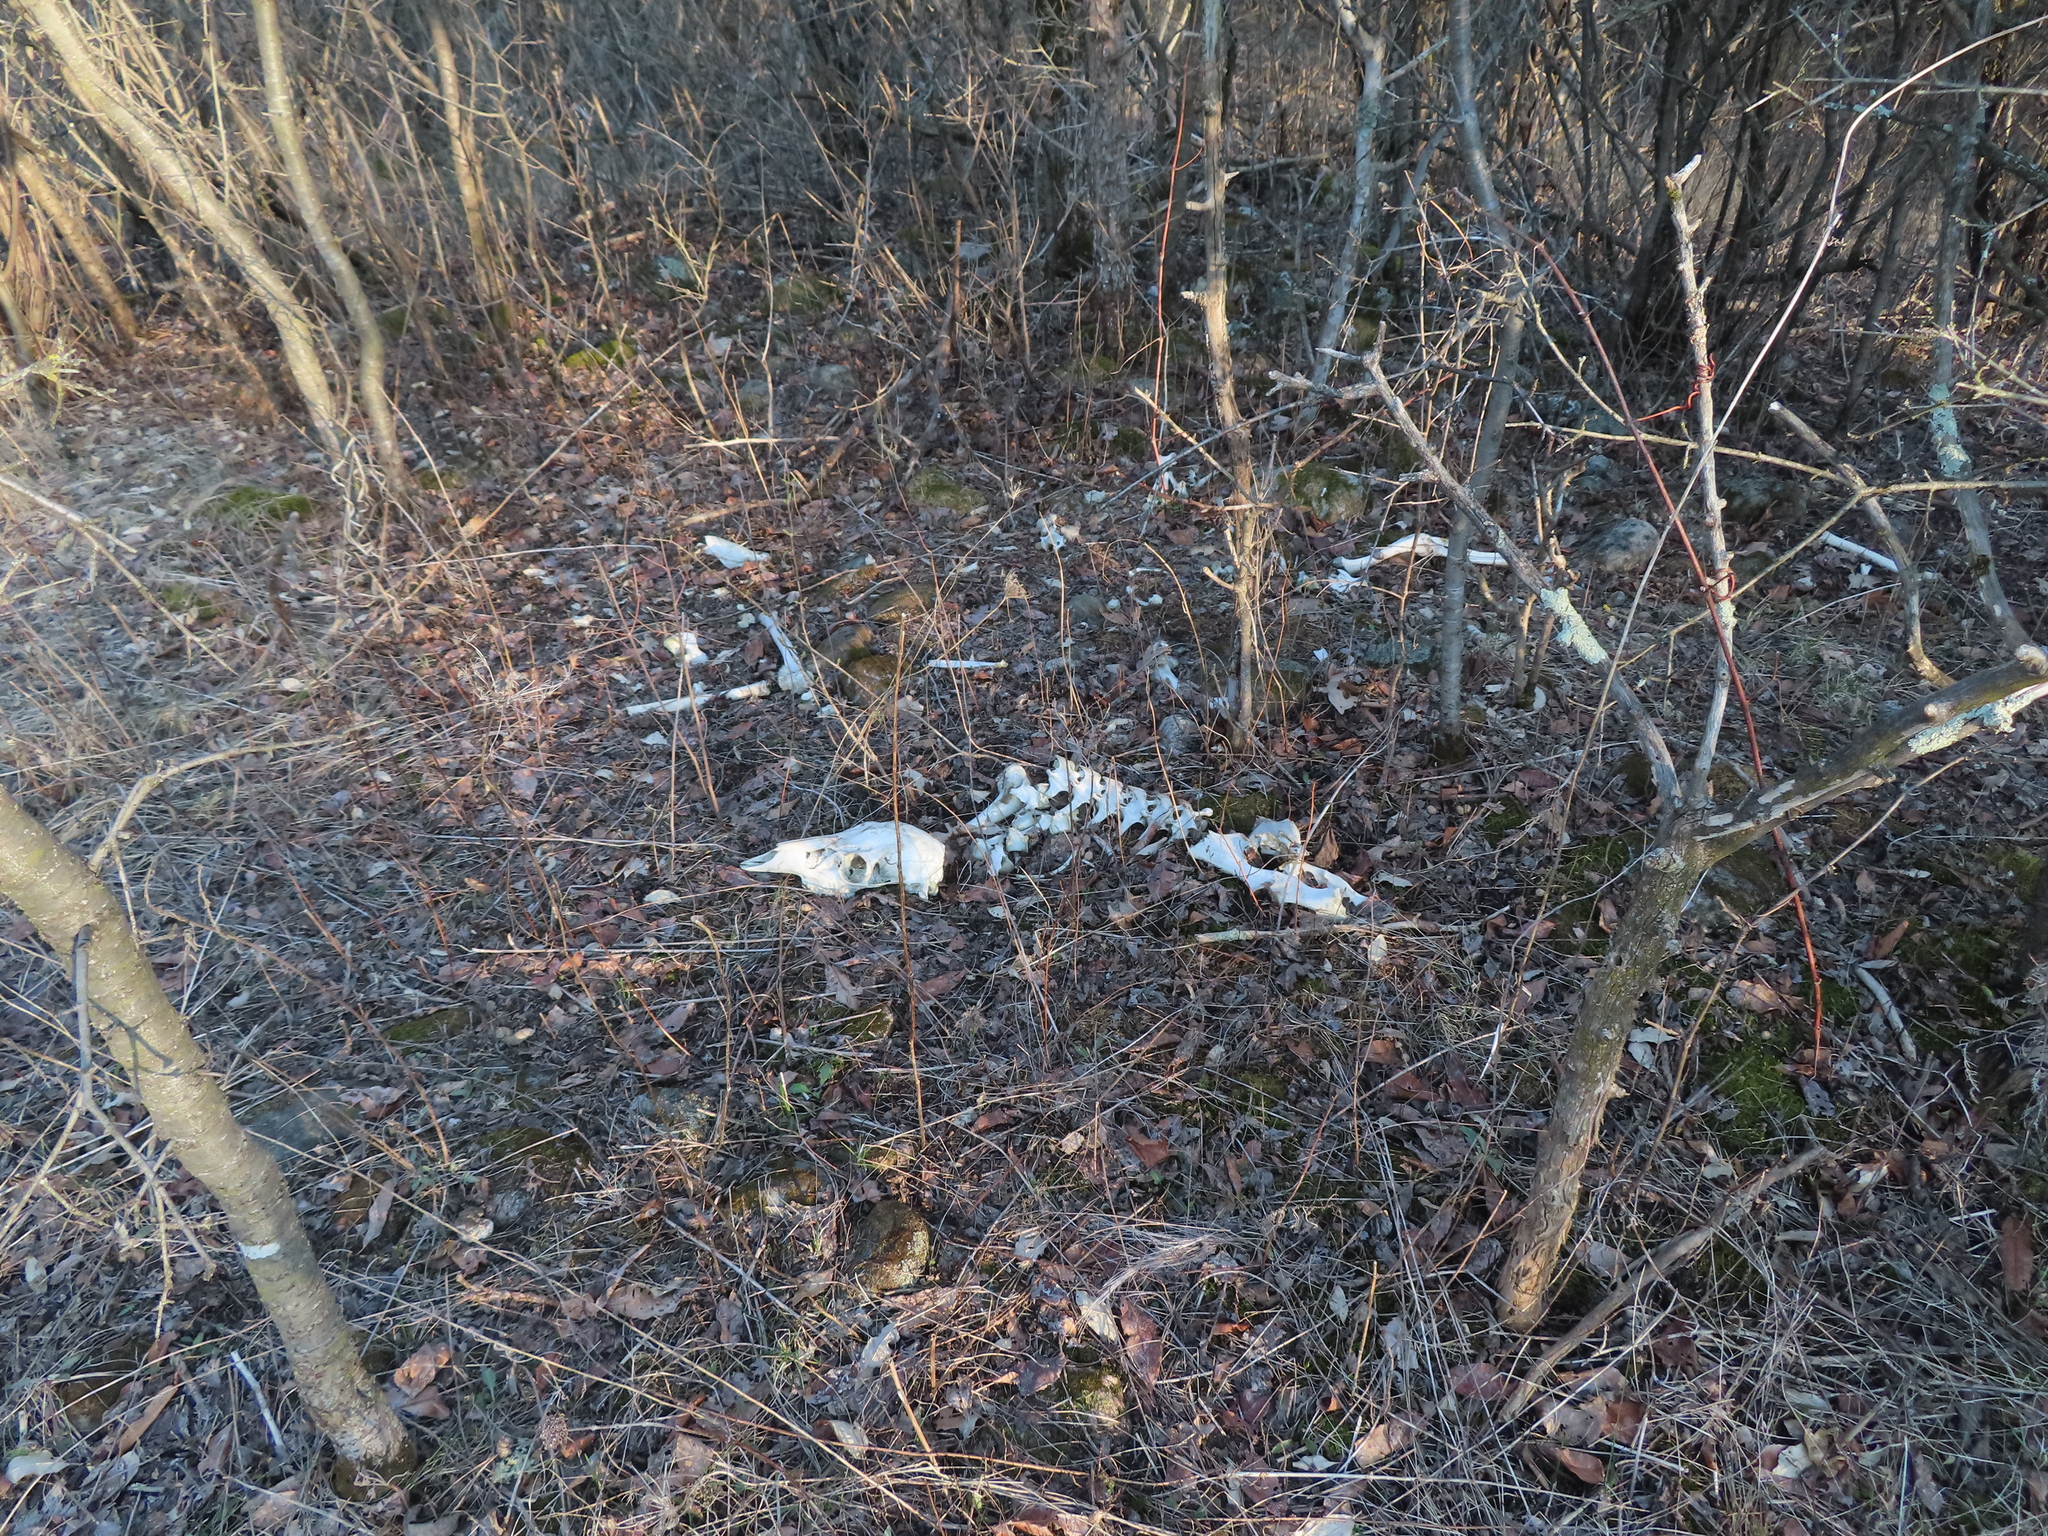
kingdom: Animalia
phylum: Chordata
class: Mammalia
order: Artiodactyla
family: Cervidae
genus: Odocoileus
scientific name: Odocoileus virginianus
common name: White-tailed deer
